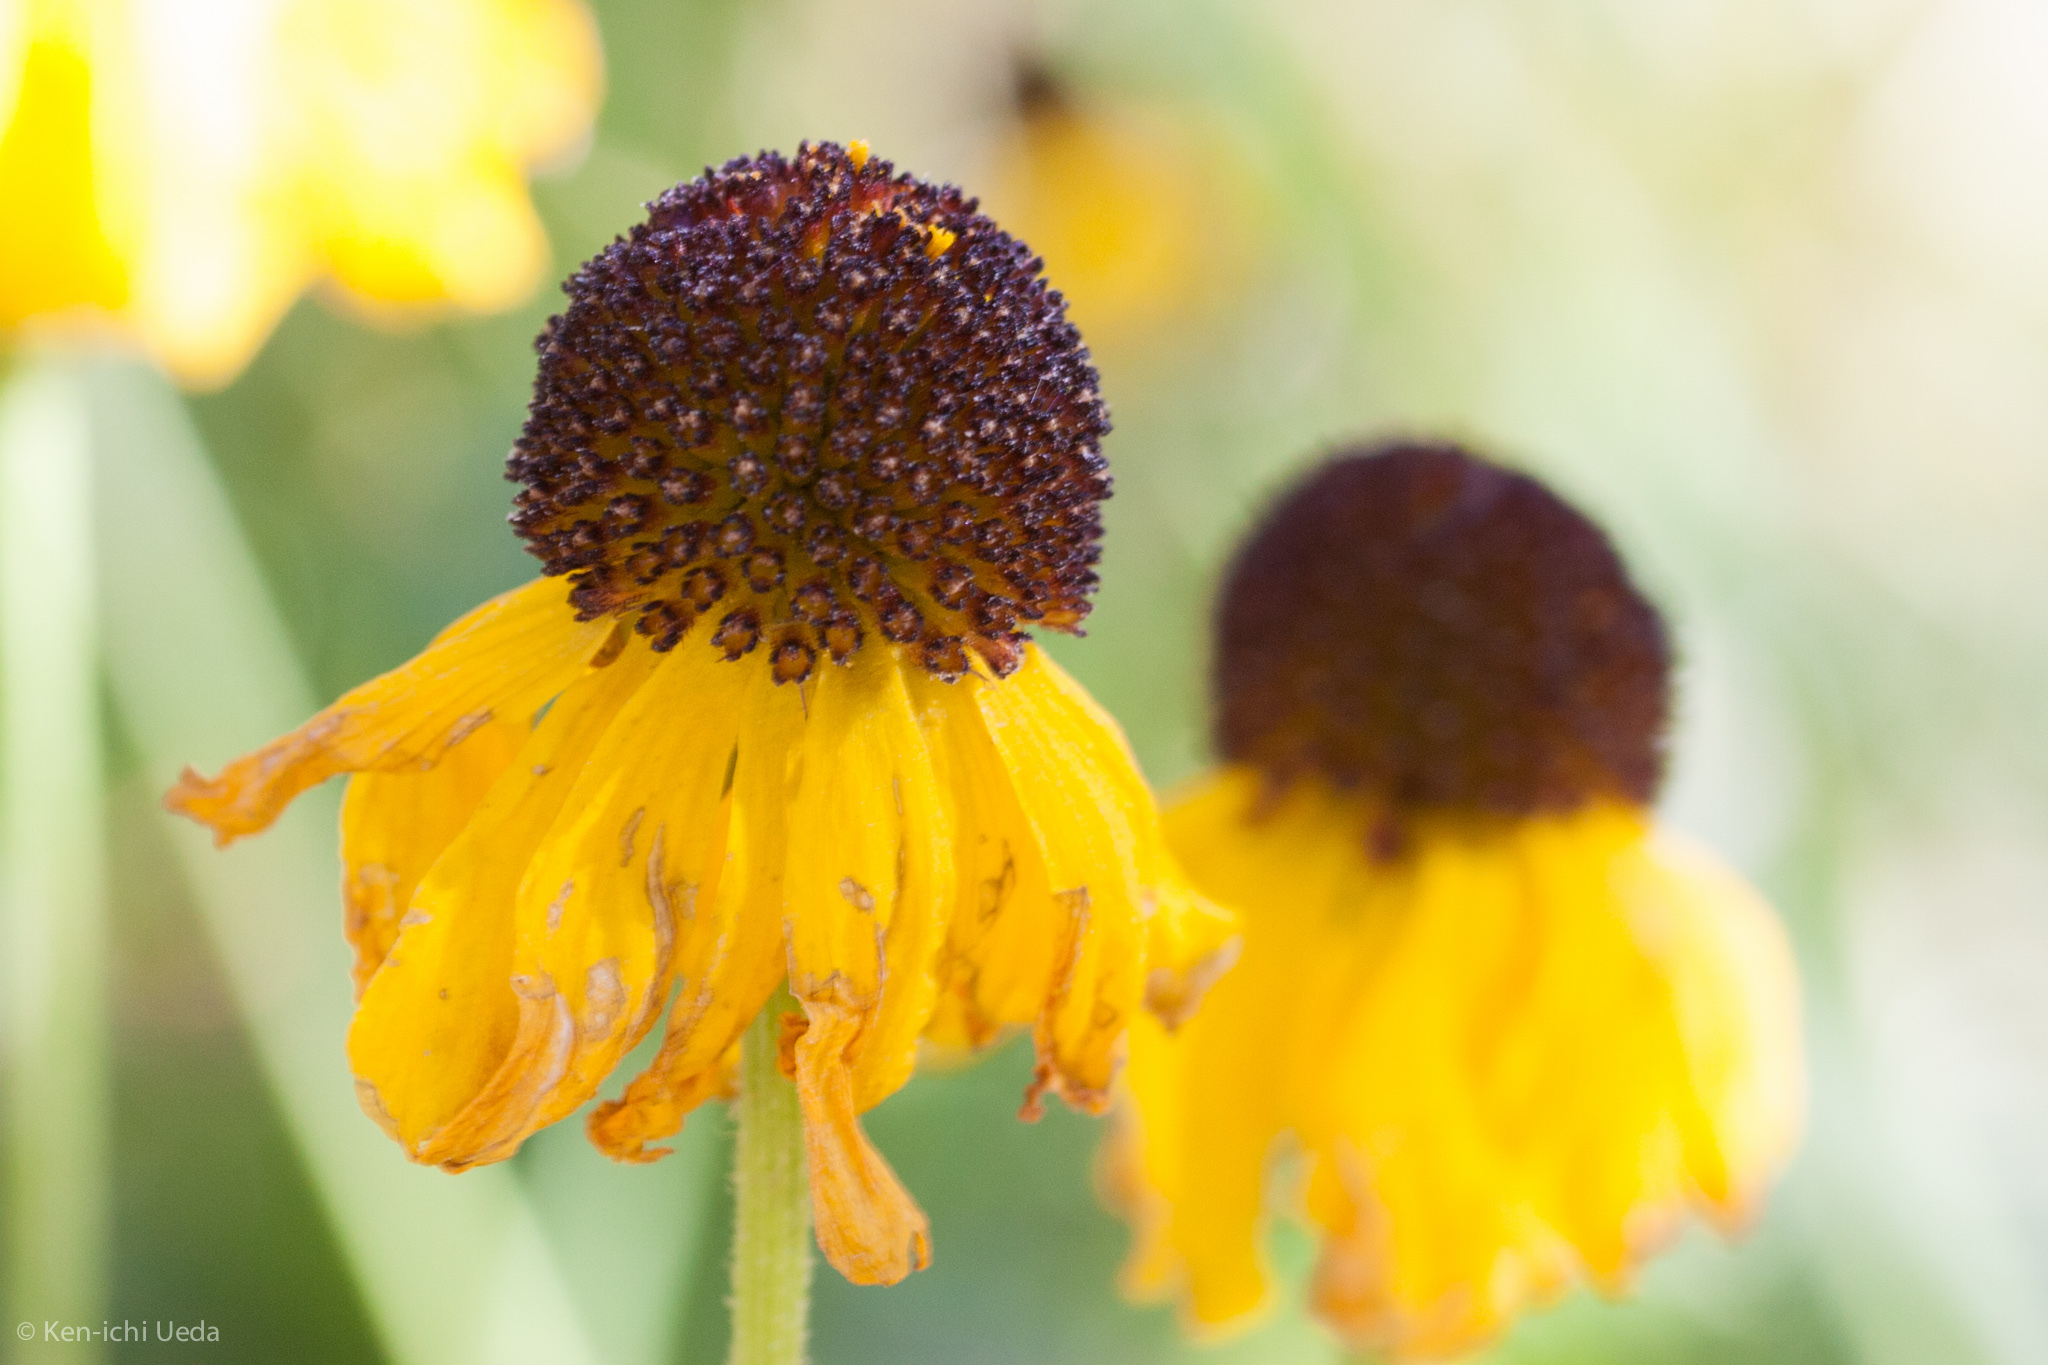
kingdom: Plantae
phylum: Tracheophyta
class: Magnoliopsida
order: Asterales
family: Asteraceae
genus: Helenium
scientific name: Helenium bigelovii
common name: Bigelow's sneezeweed
